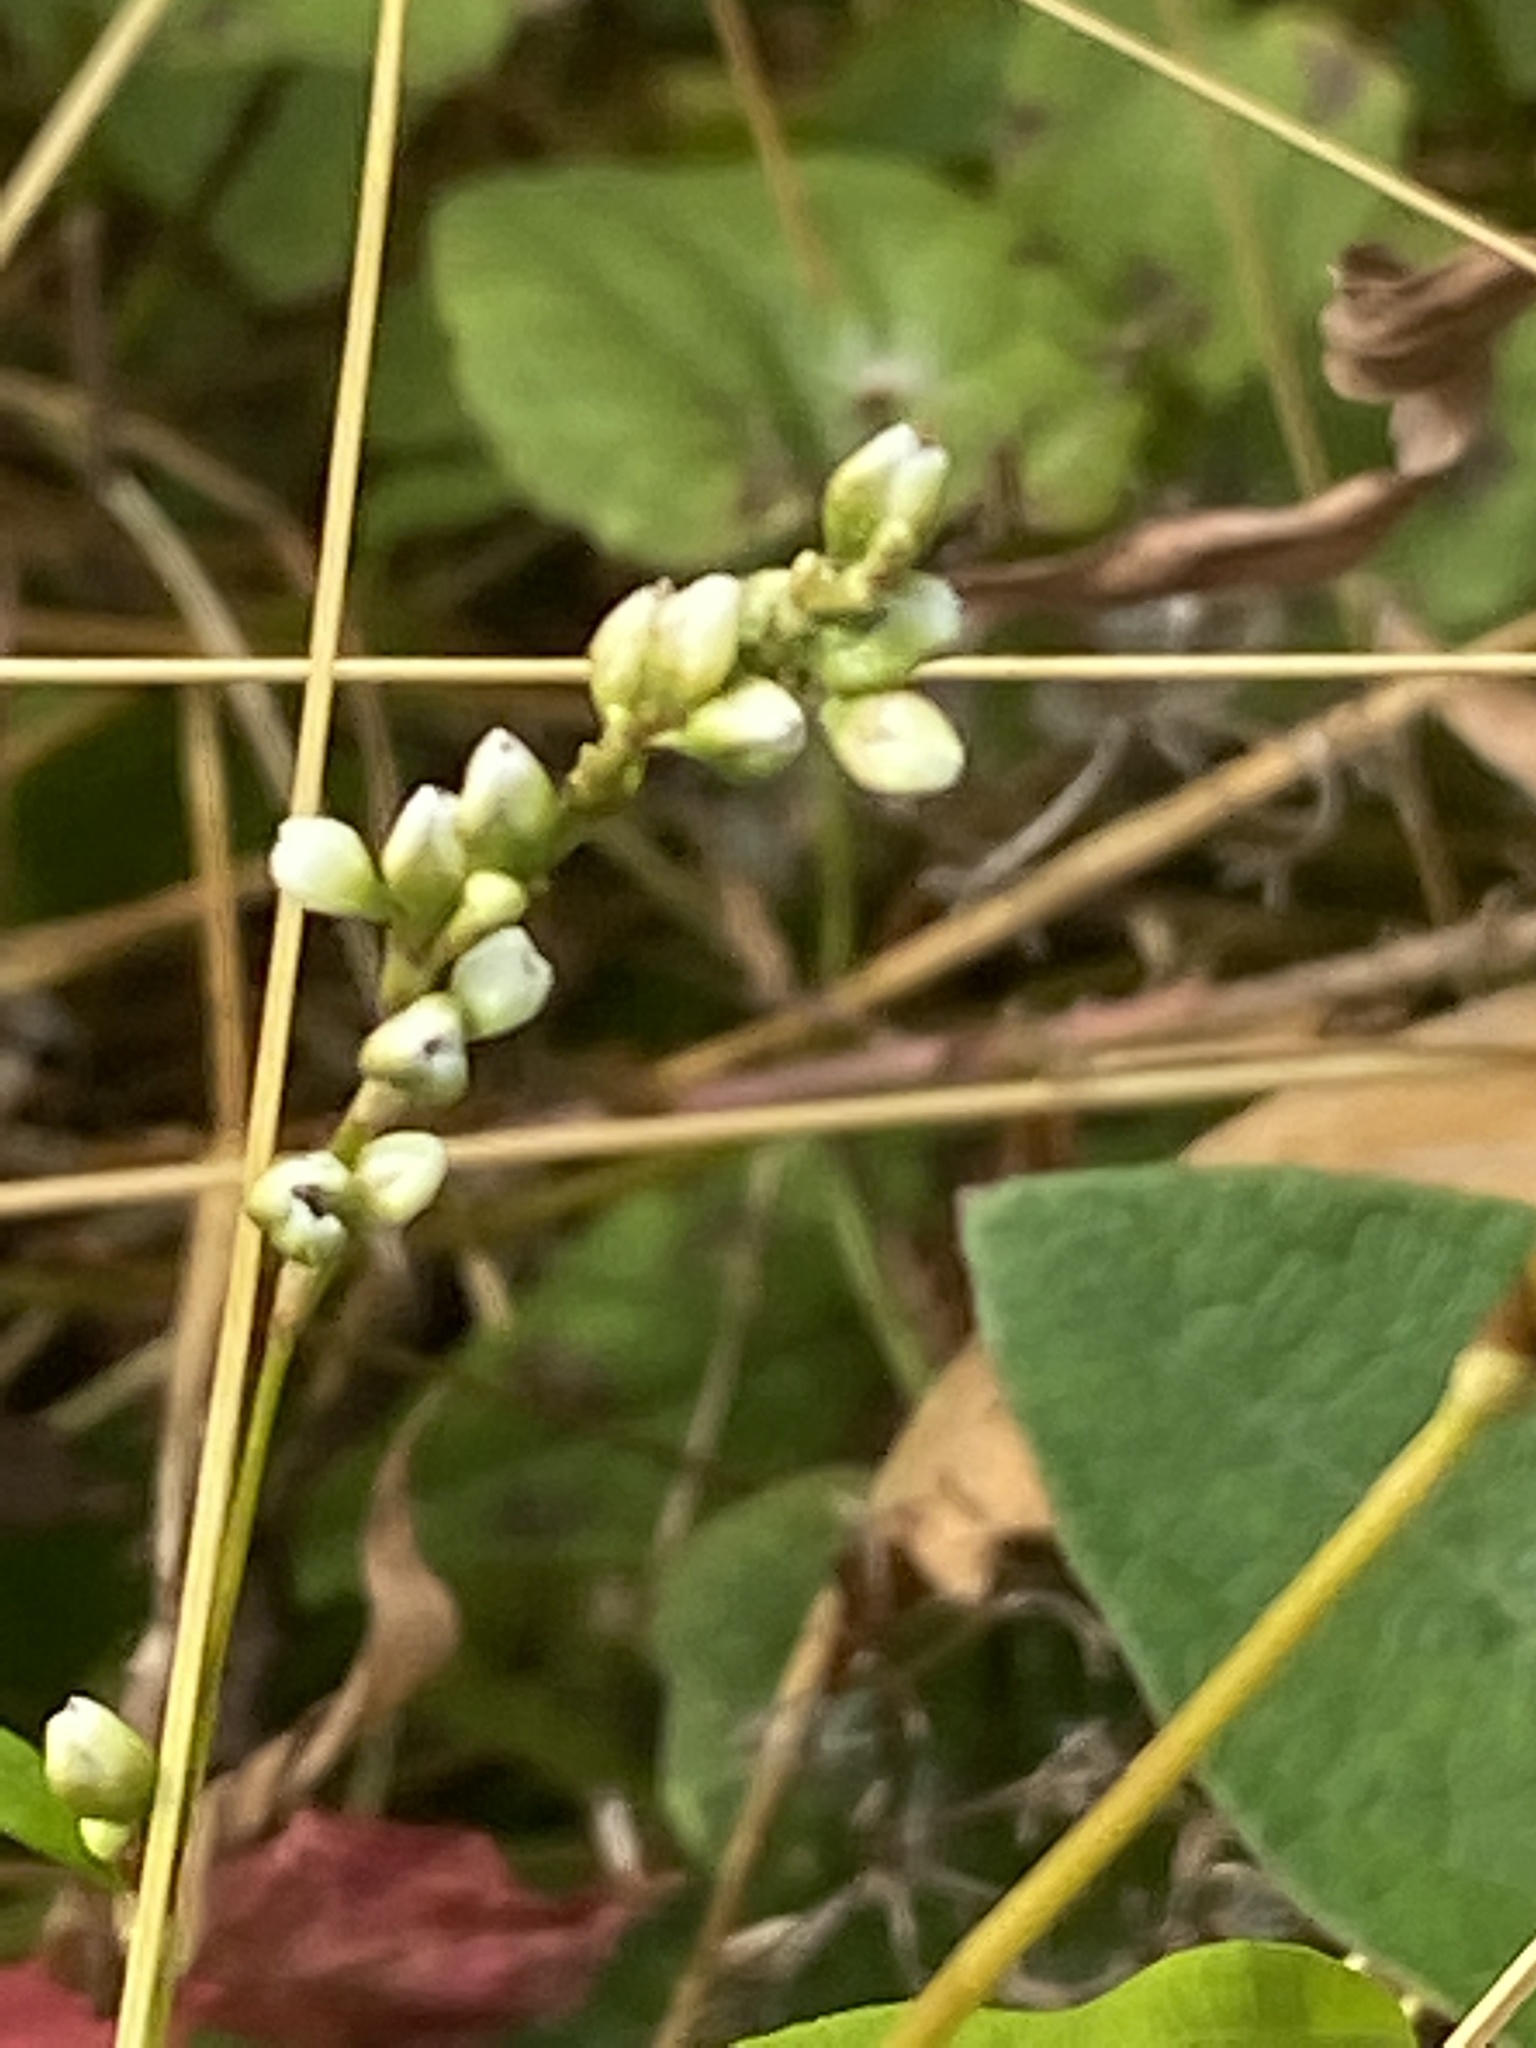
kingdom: Plantae
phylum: Tracheophyta
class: Magnoliopsida
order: Caryophyllales
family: Polygonaceae
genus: Persicaria
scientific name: Persicaria punctata
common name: Dotted smartweed
